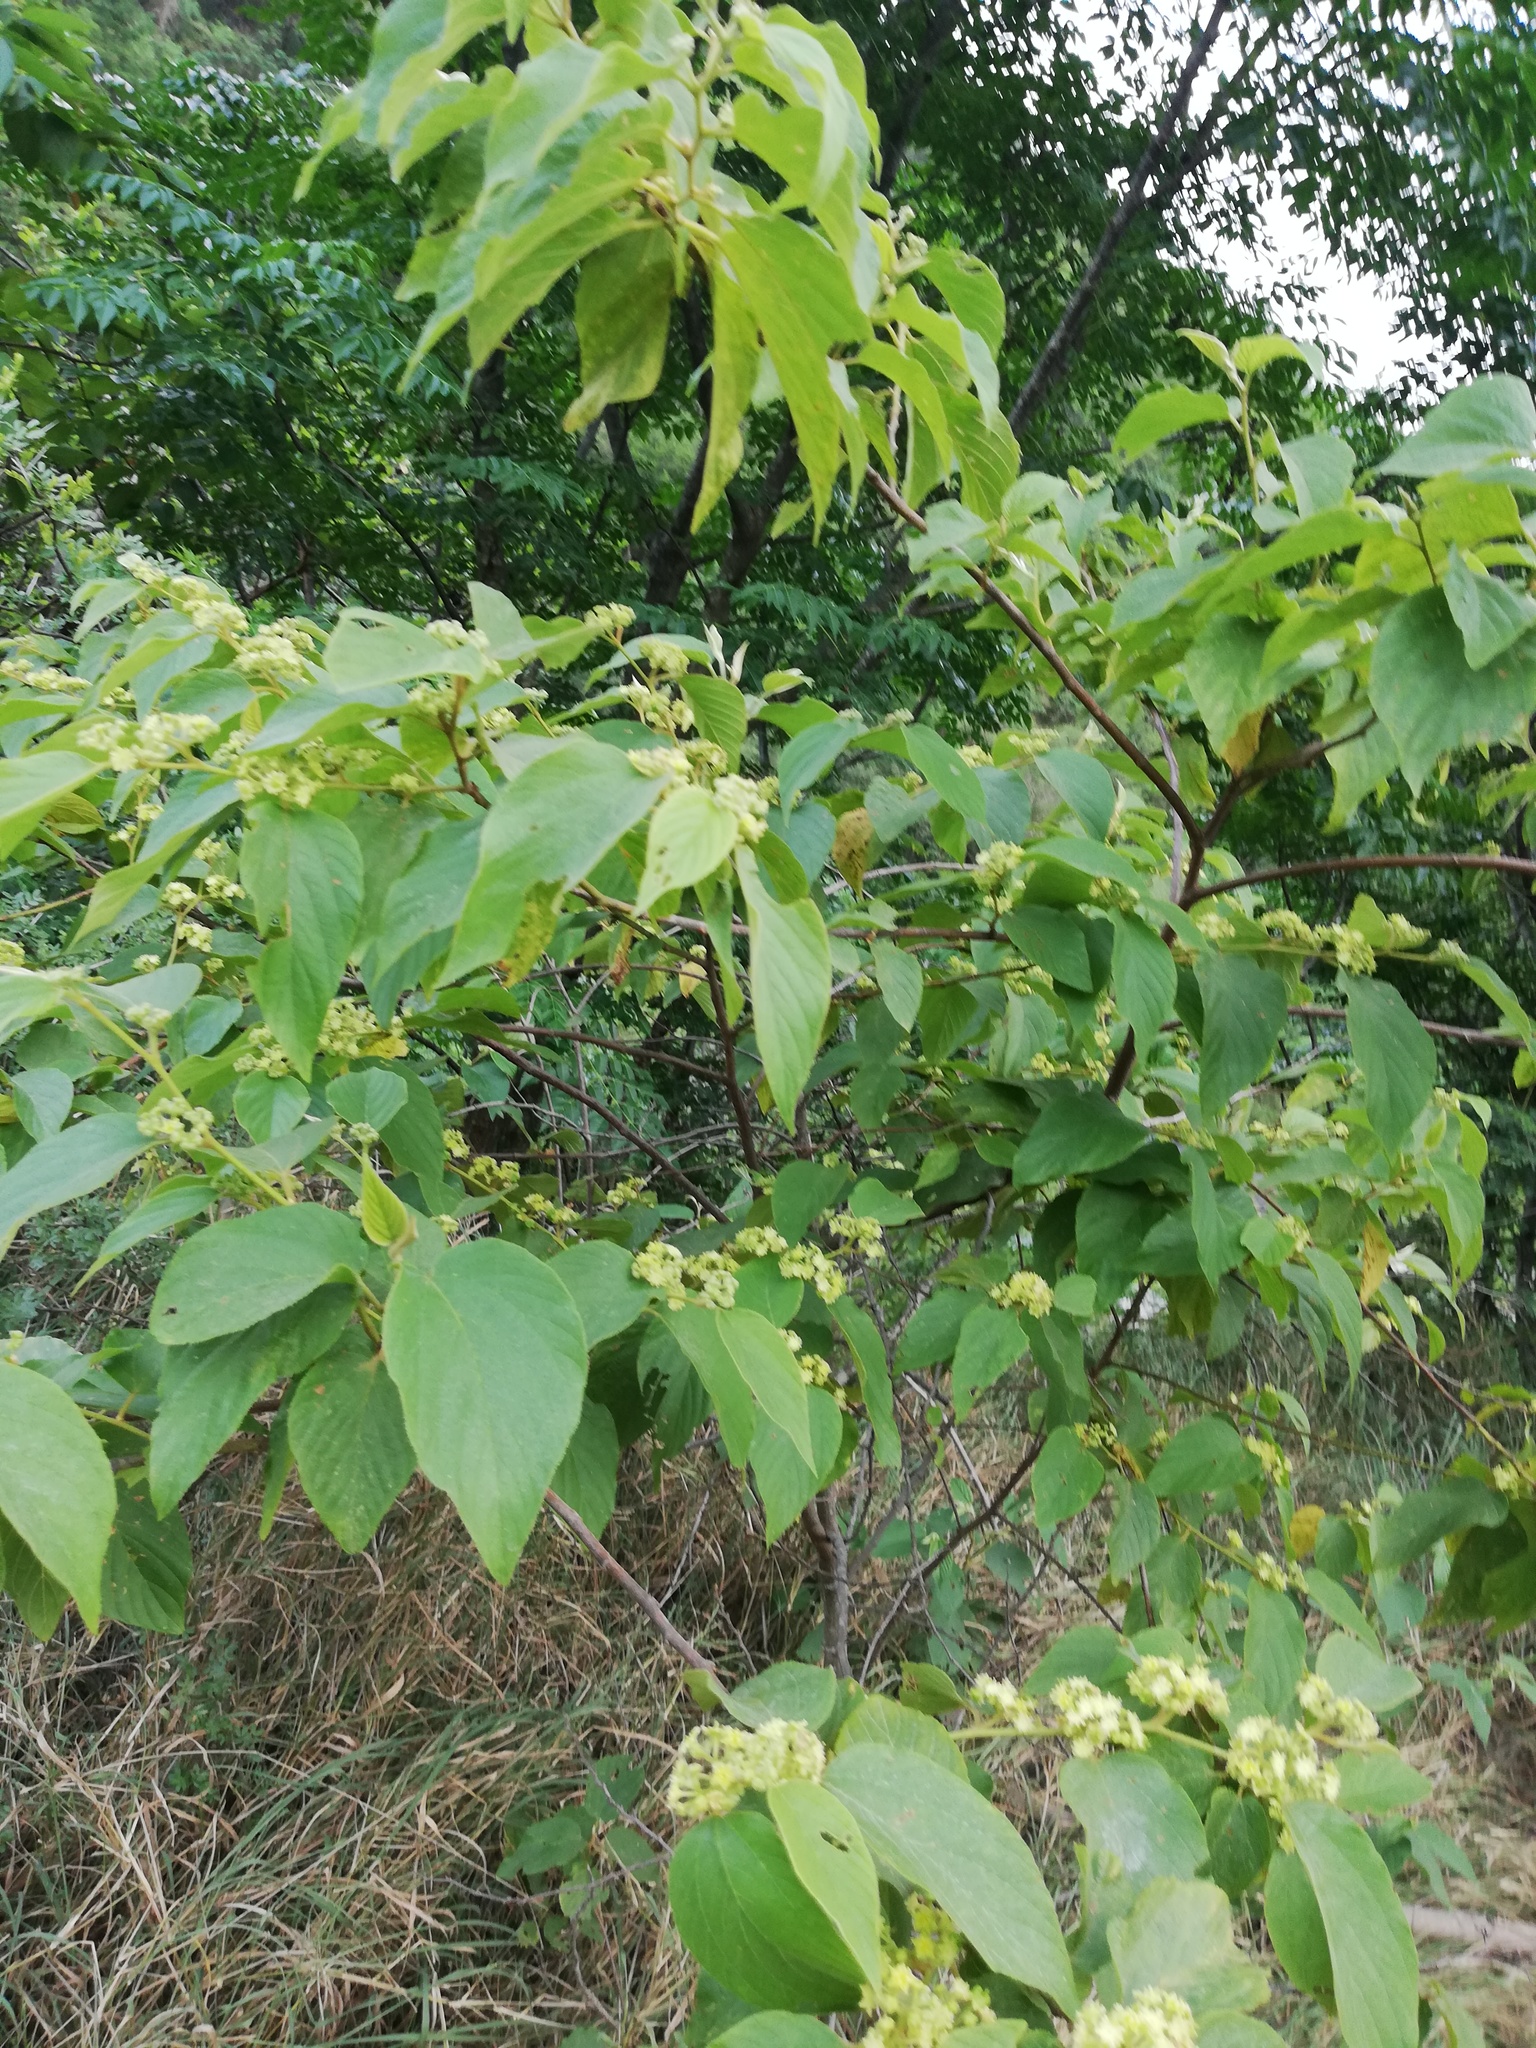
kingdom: Plantae
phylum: Tracheophyta
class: Magnoliopsida
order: Rosales
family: Rhamnaceae
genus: Colubrina
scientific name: Colubrina greggii
